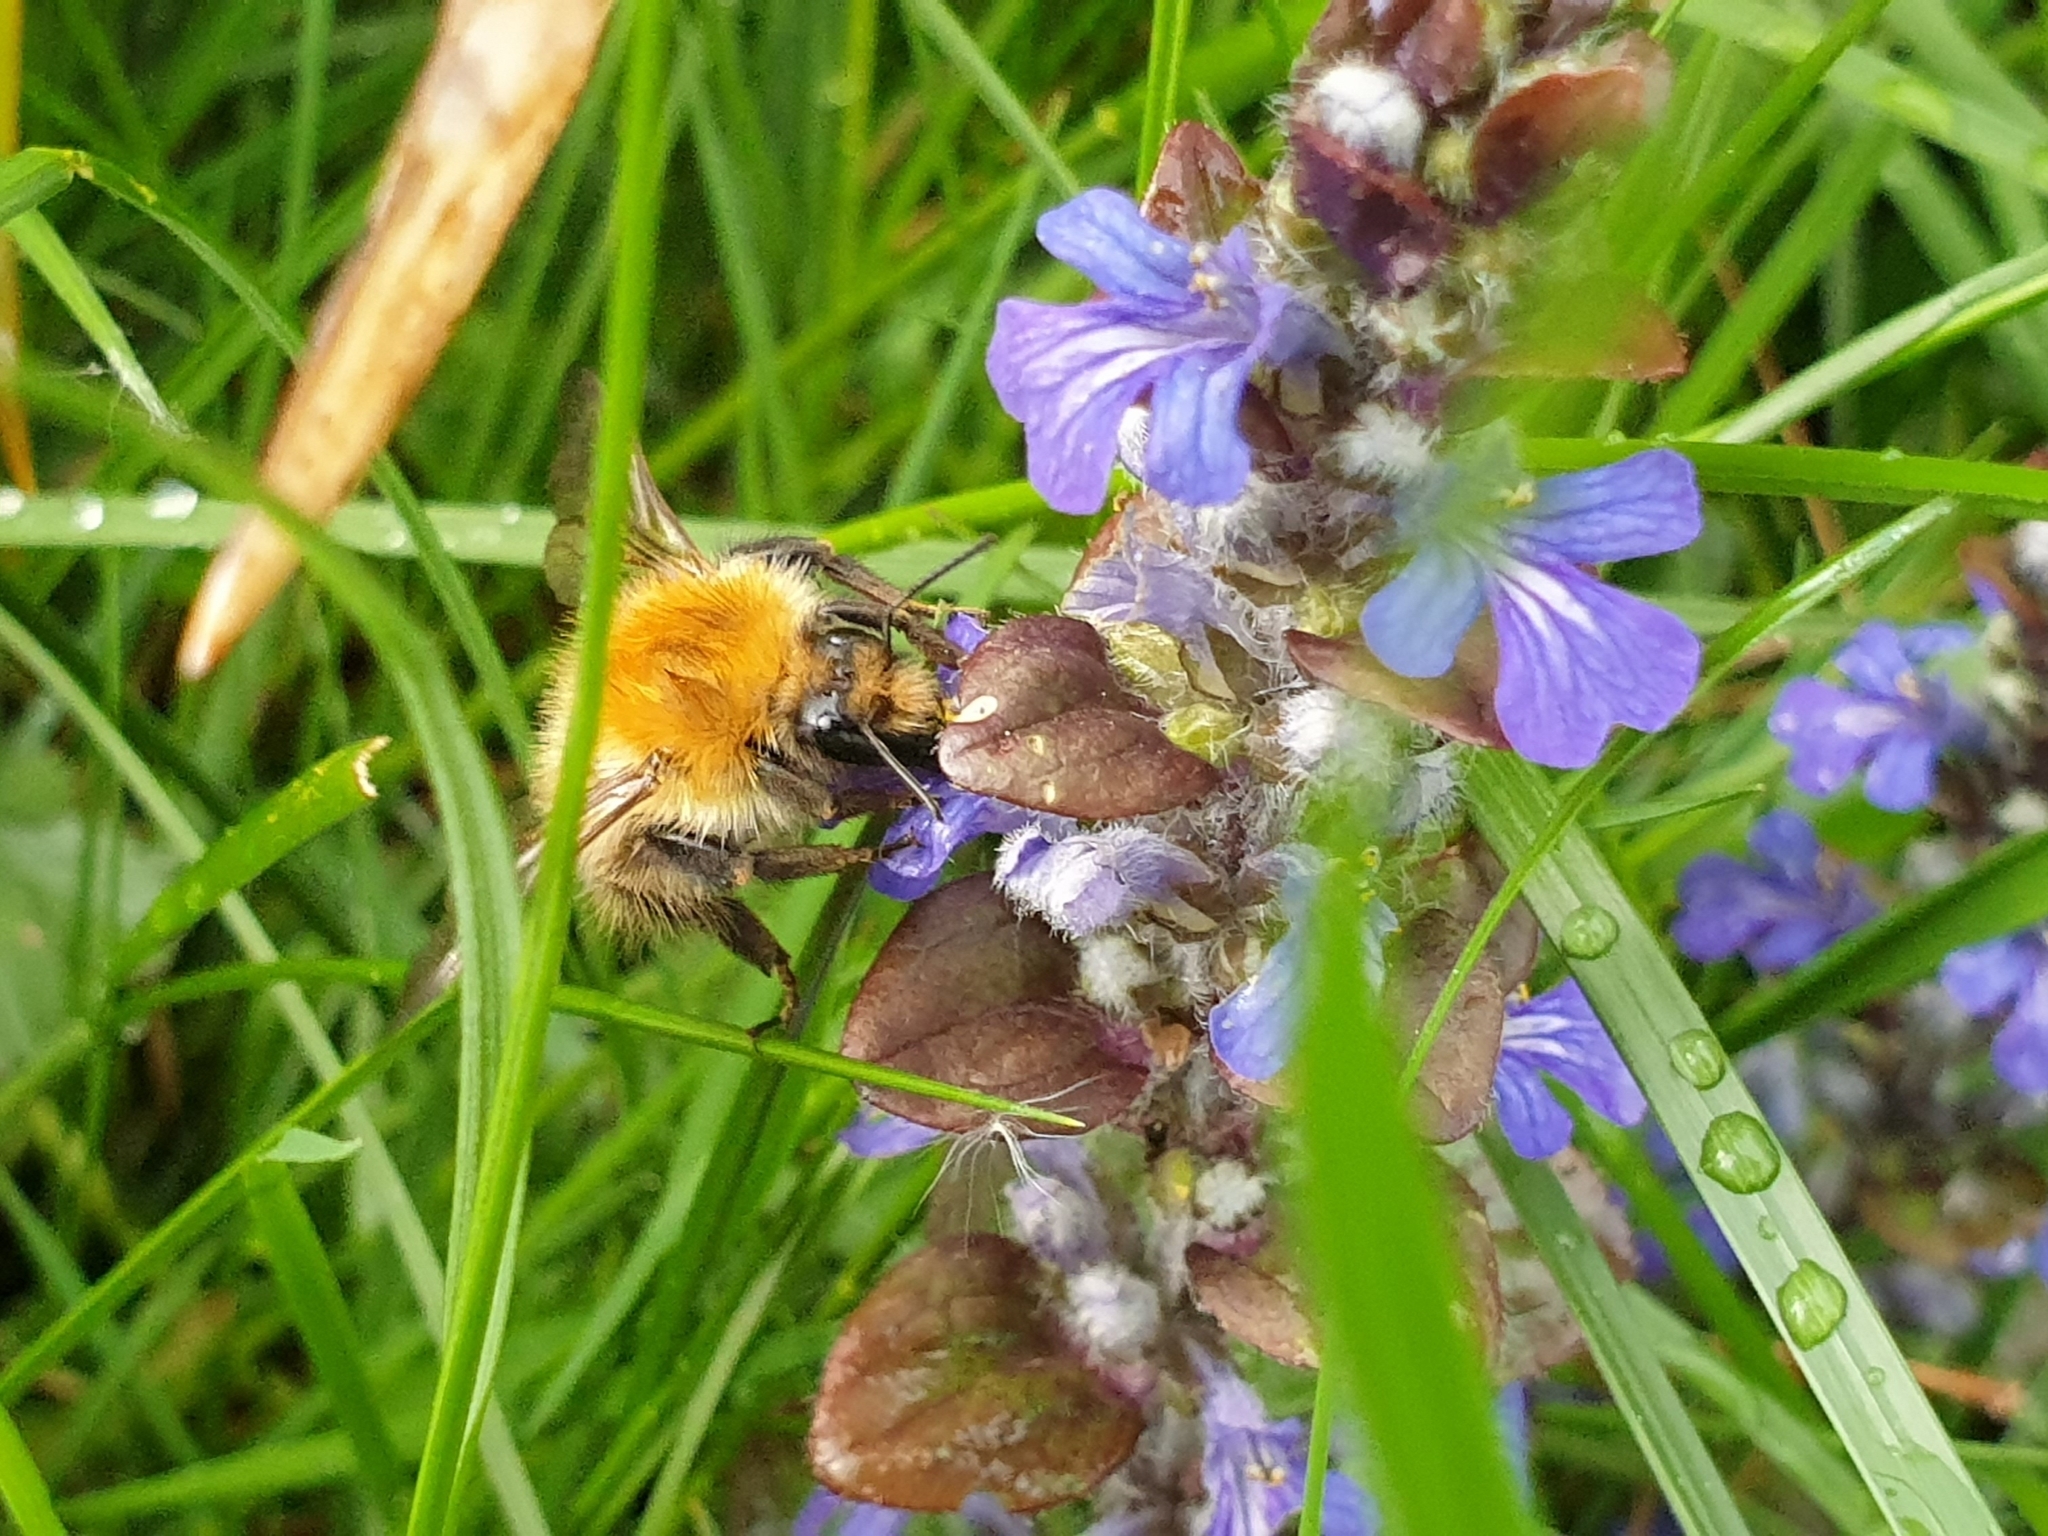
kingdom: Animalia
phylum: Arthropoda
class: Insecta
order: Hymenoptera
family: Apidae
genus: Bombus
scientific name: Bombus pascuorum
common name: Common carder bee
